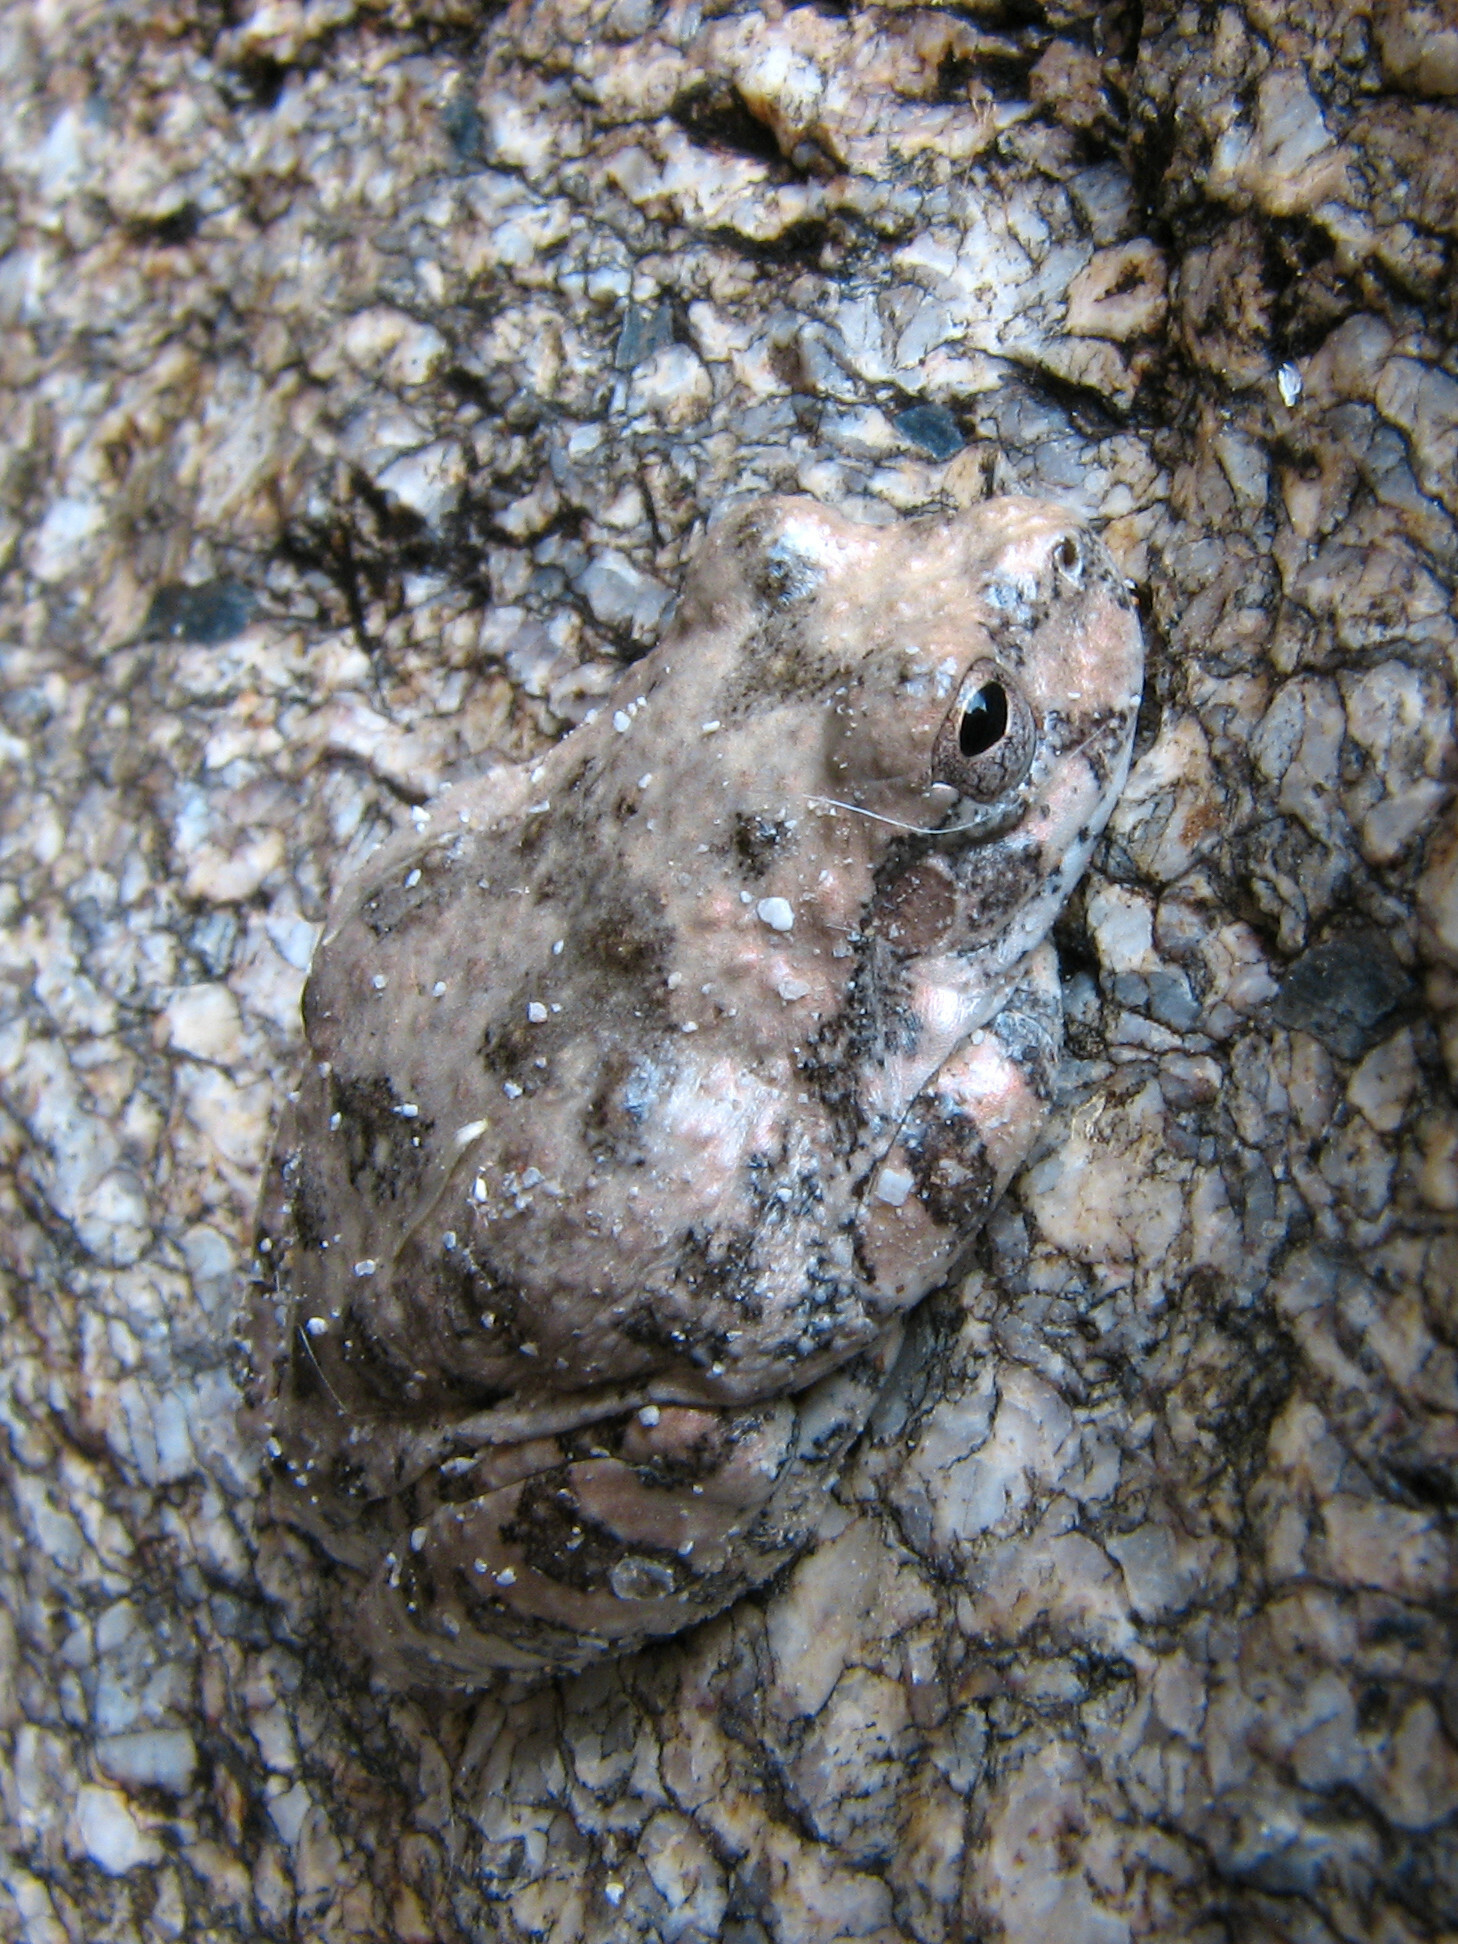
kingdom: Animalia
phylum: Chordata
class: Amphibia
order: Anura
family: Hylidae
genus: Dryophytes
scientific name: Dryophytes arenicolor
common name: Canyon treefrog
